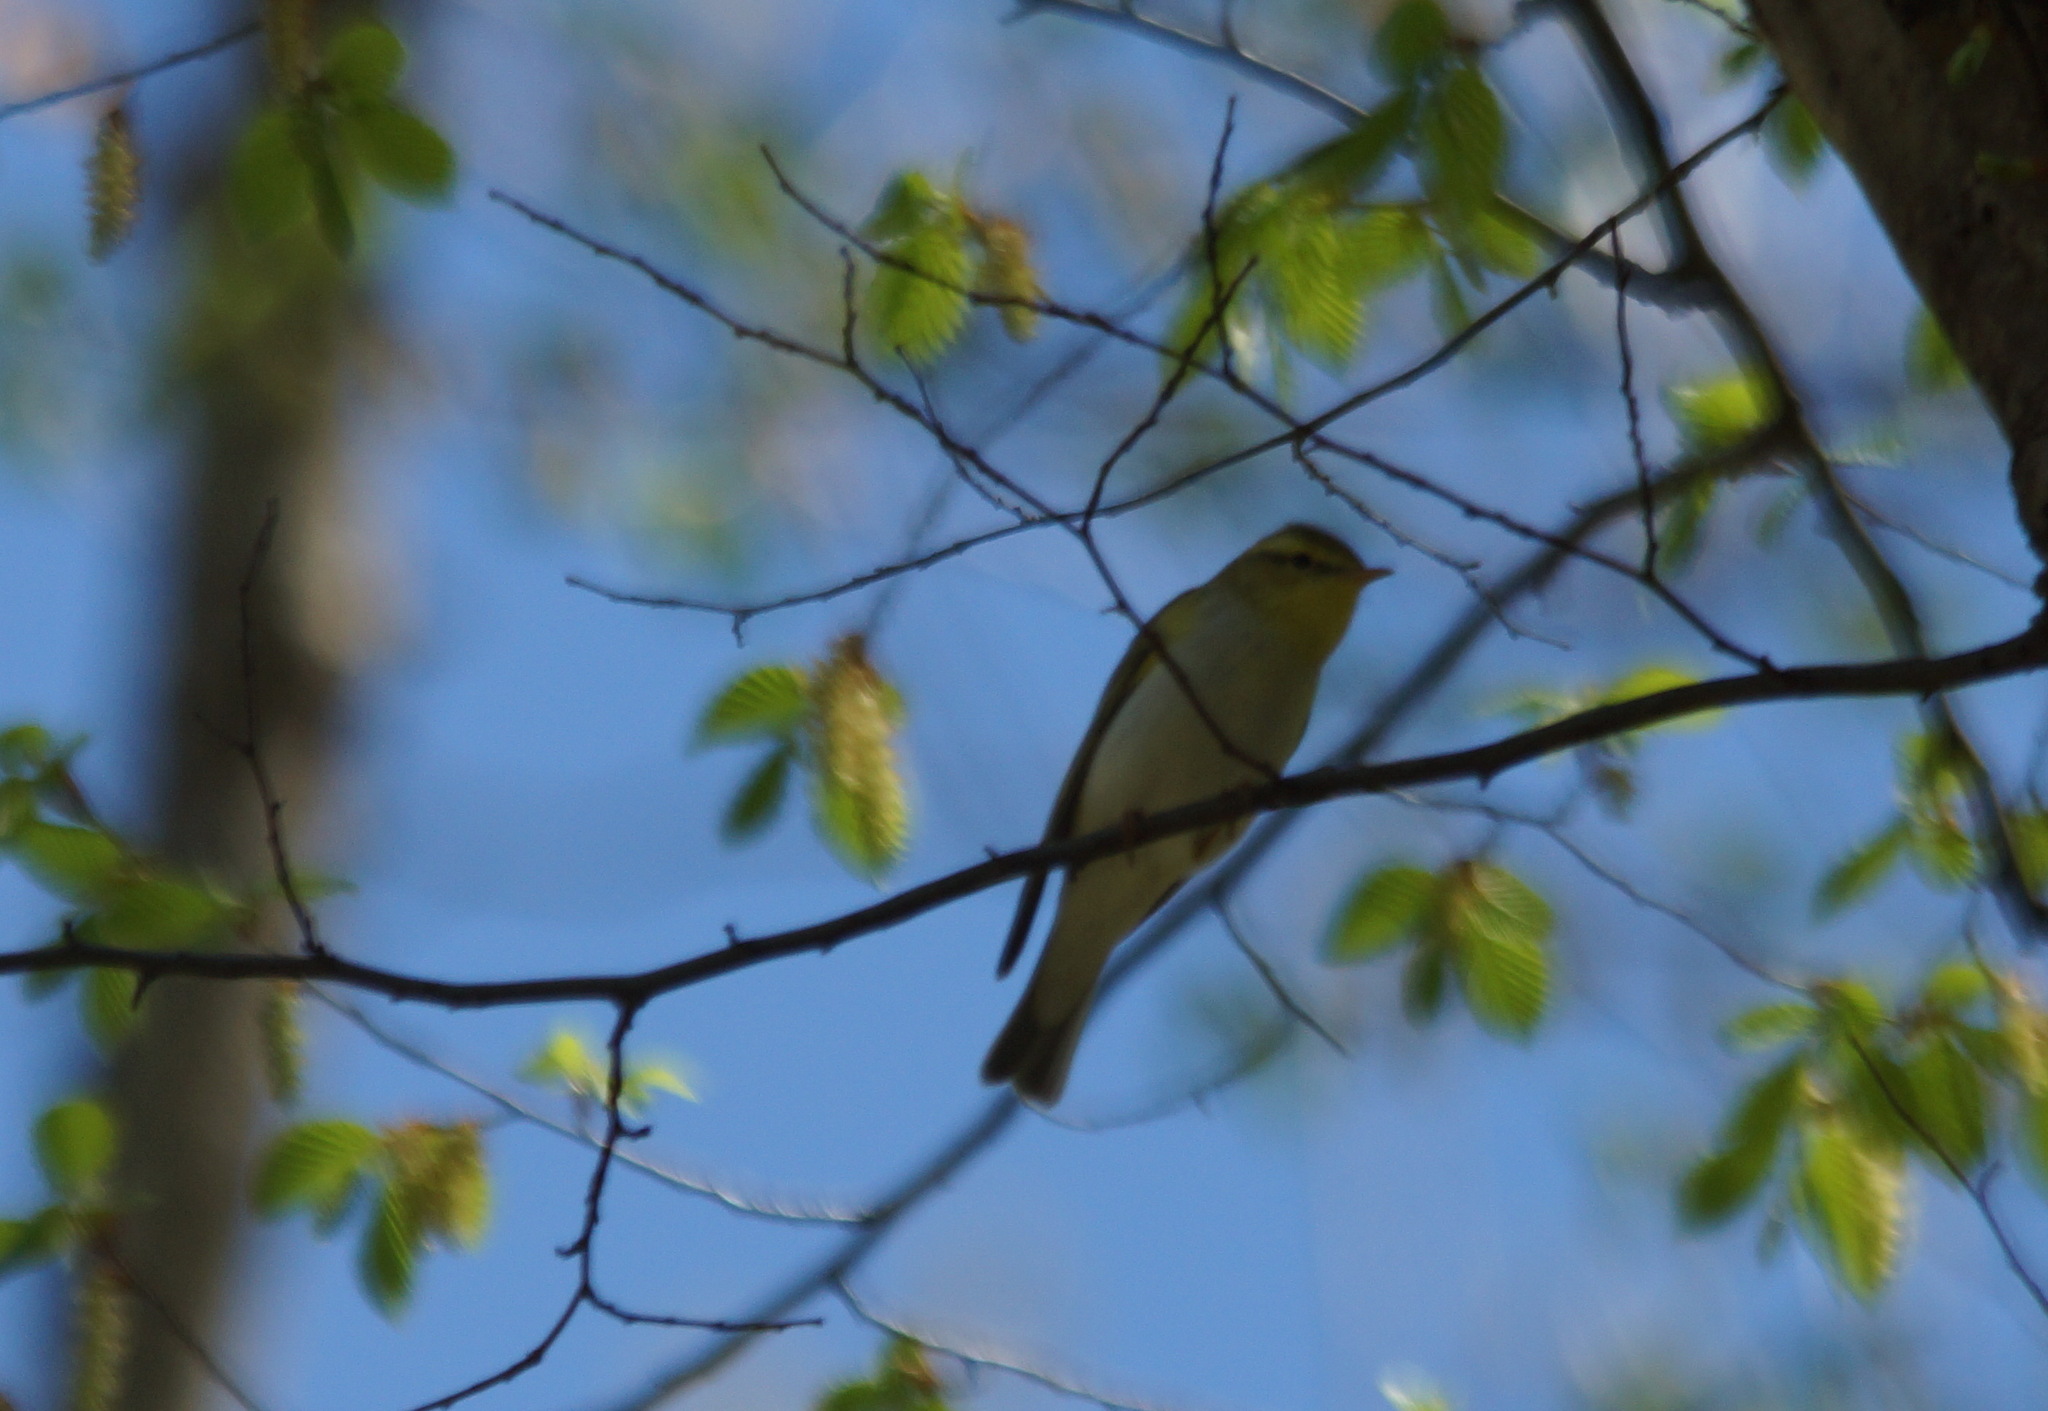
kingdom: Animalia
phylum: Chordata
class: Aves
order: Passeriformes
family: Phylloscopidae
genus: Phylloscopus
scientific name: Phylloscopus sibillatrix
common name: Wood warbler
